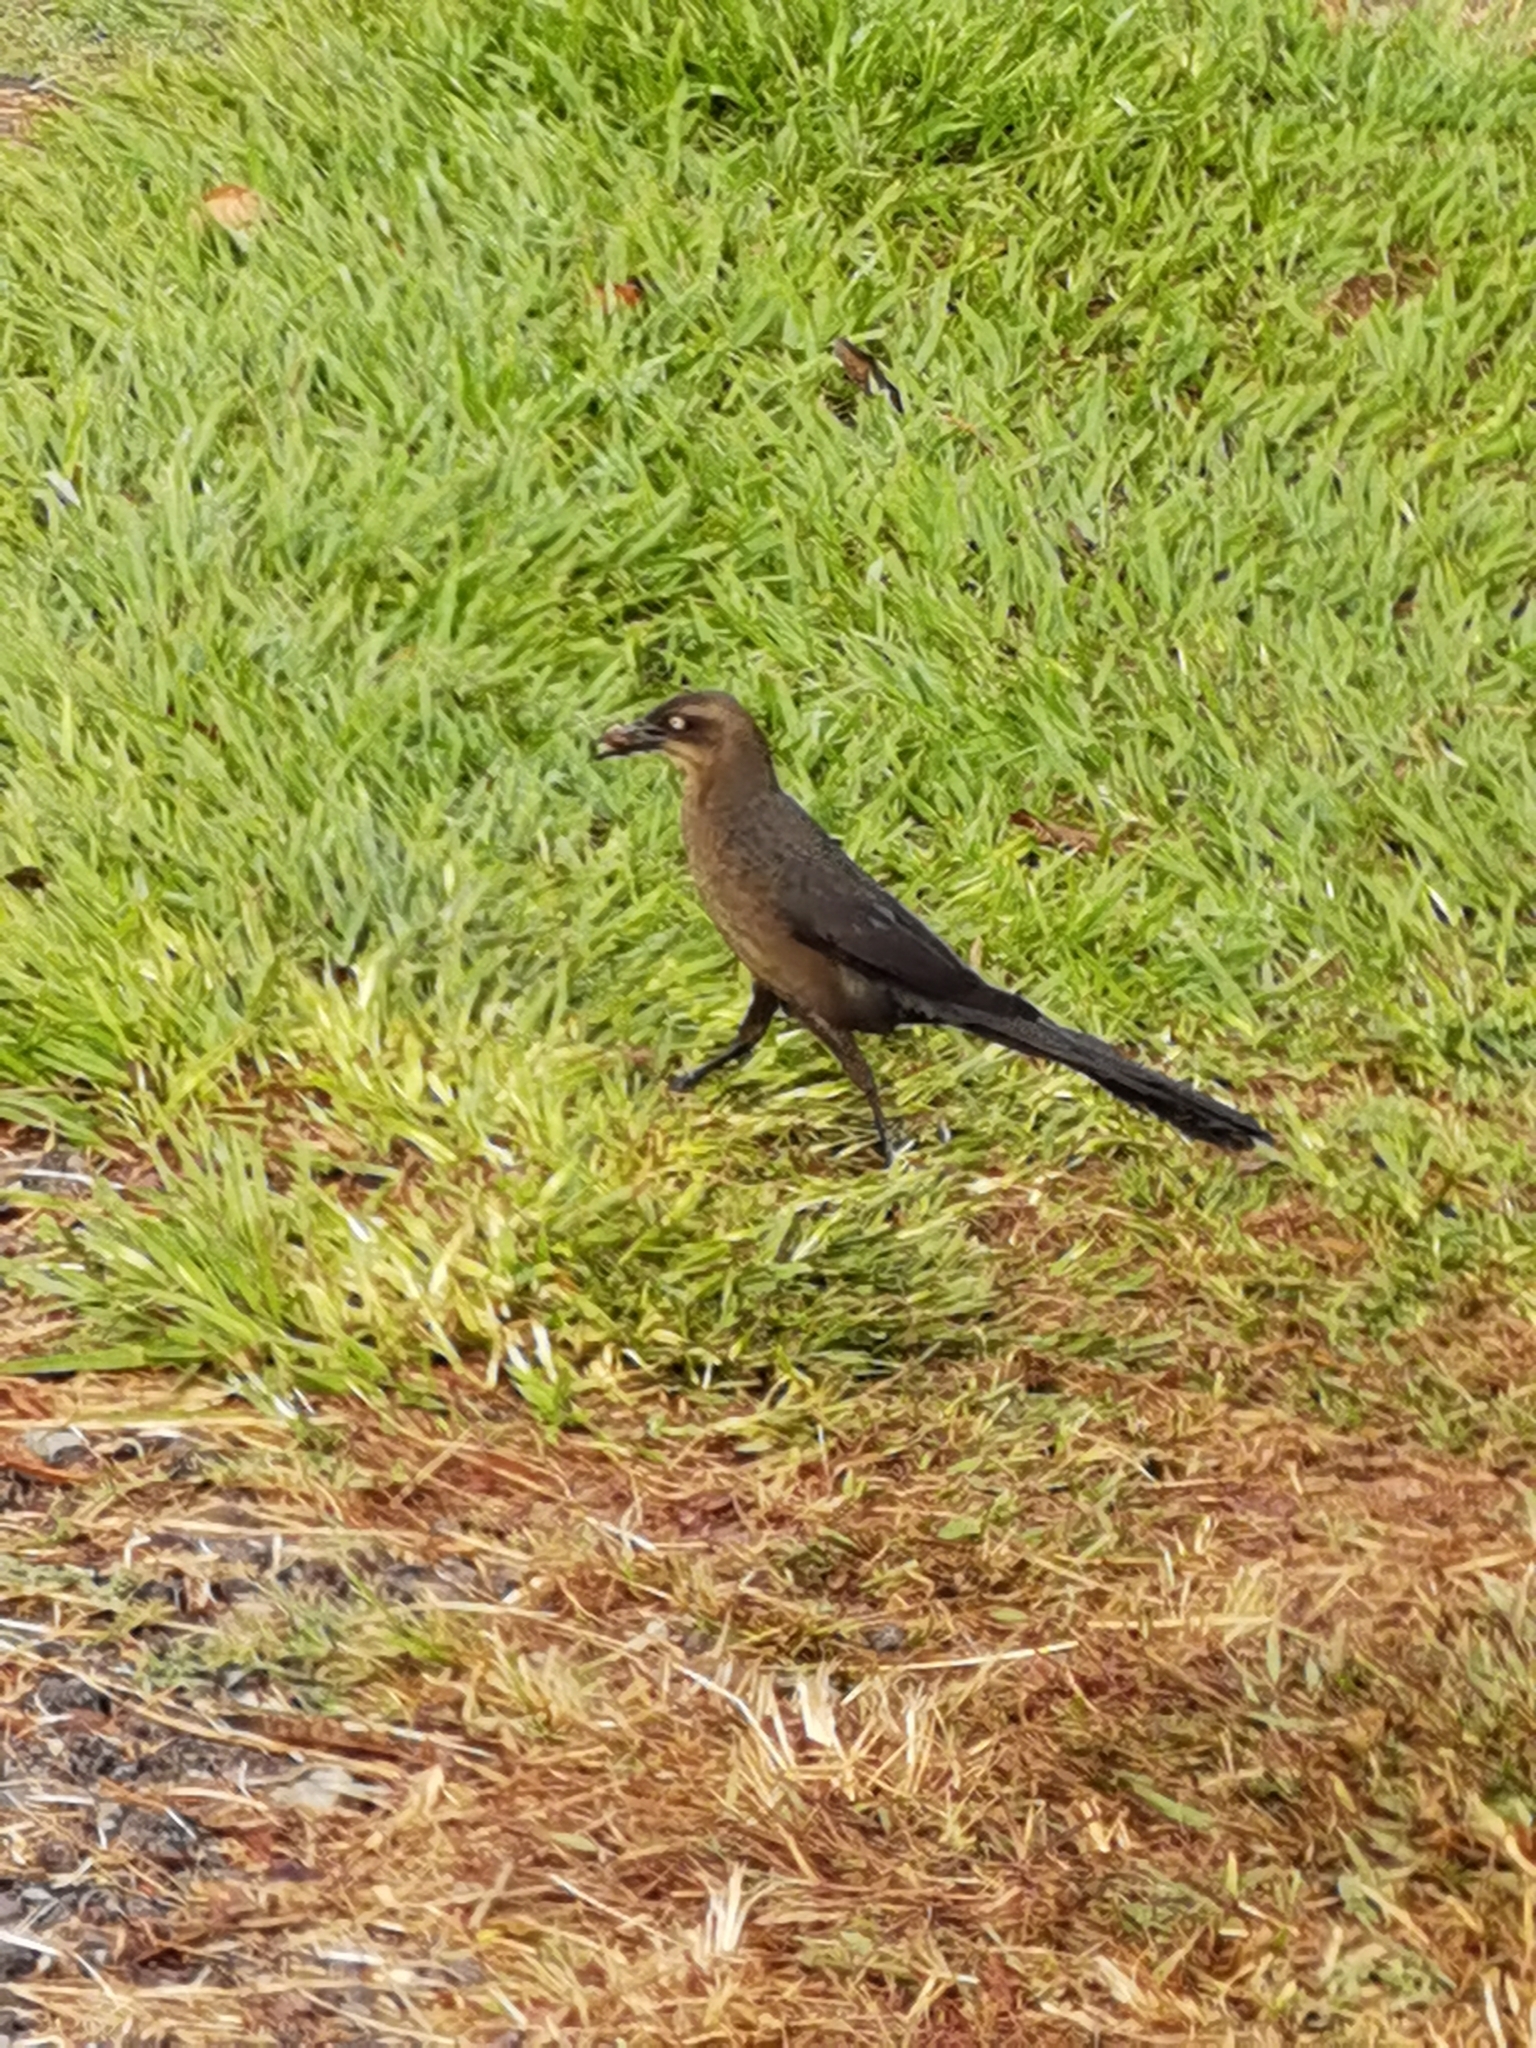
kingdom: Animalia
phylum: Chordata
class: Aves
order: Passeriformes
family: Icteridae
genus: Quiscalus
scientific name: Quiscalus mexicanus
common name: Great-tailed grackle
